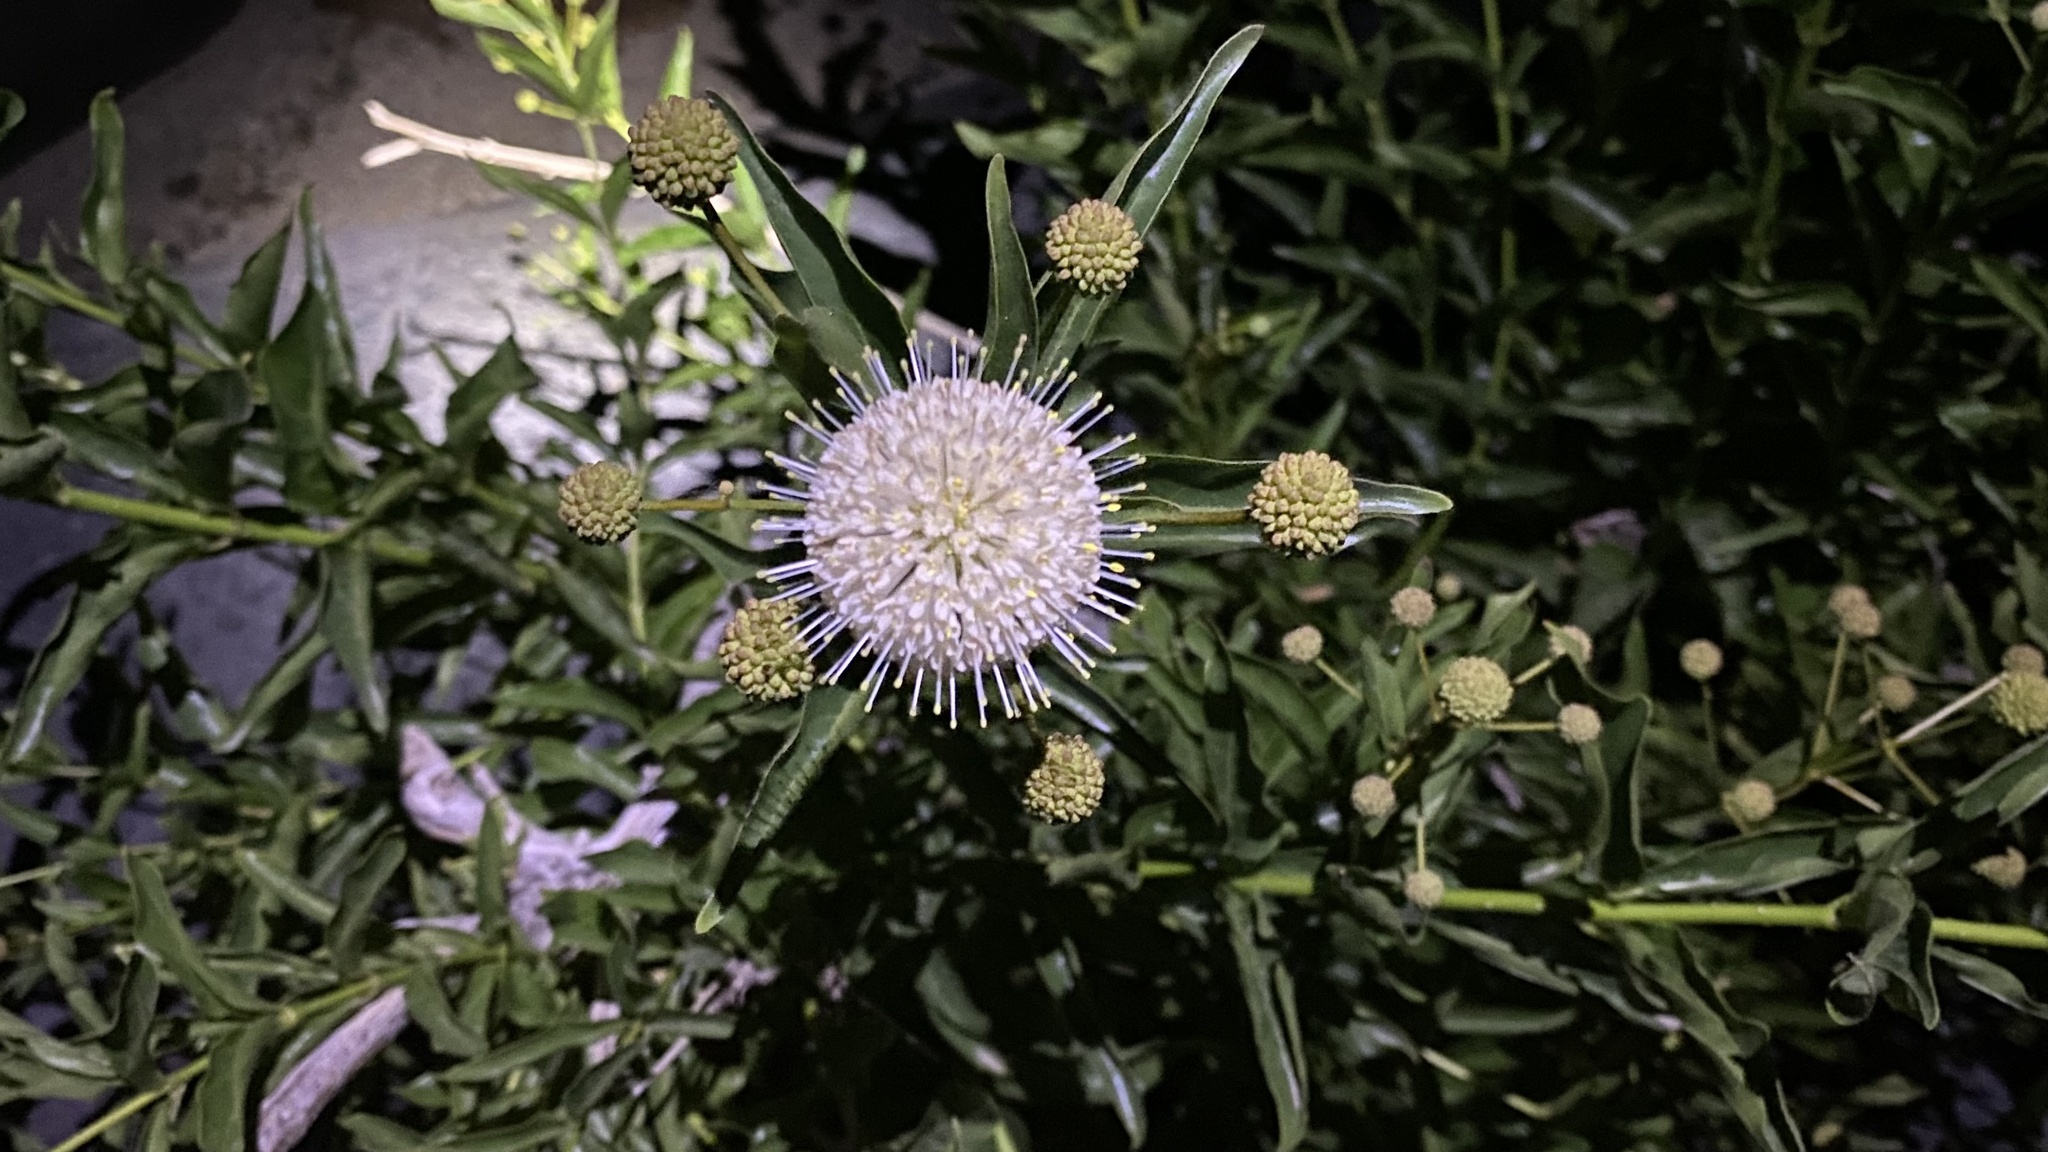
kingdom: Plantae
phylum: Tracheophyta
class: Magnoliopsida
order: Gentianales
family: Rubiaceae
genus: Cephalanthus
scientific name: Cephalanthus occidentalis
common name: Button-willow
